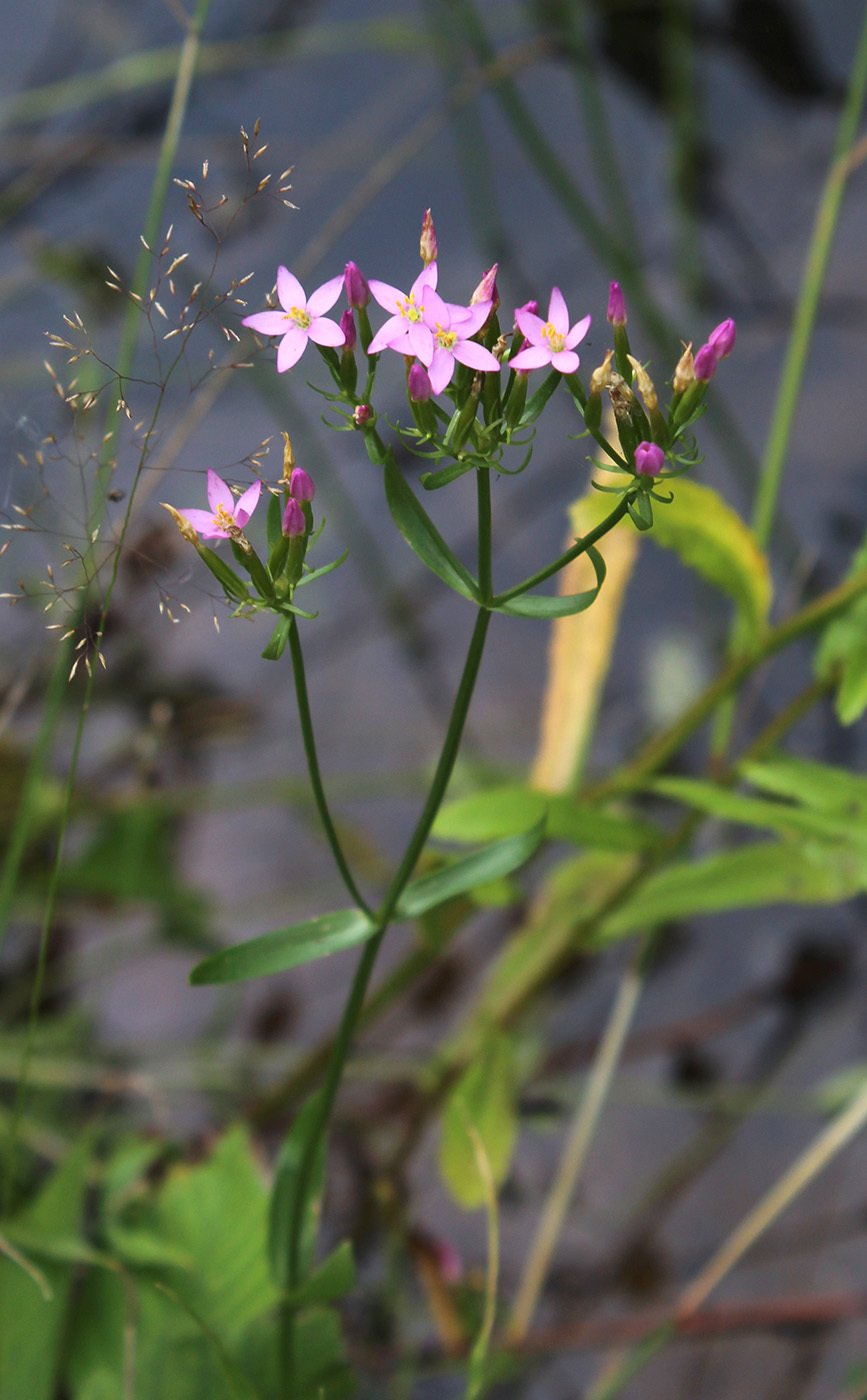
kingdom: Plantae
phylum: Tracheophyta
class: Magnoliopsida
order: Gentianales
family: Gentianaceae
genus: Centaurium
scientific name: Centaurium erythraea
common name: Common centaury
